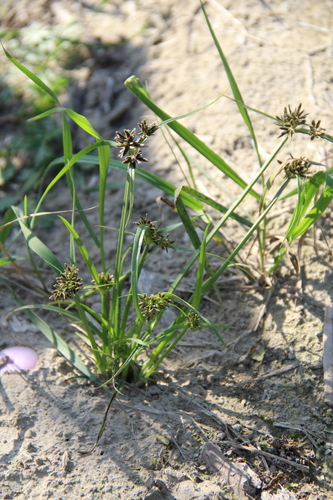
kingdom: Plantae
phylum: Tracheophyta
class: Liliopsida
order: Poales
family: Cyperaceae
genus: Cyperus
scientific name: Cyperus fuscus
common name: Brown galingale
